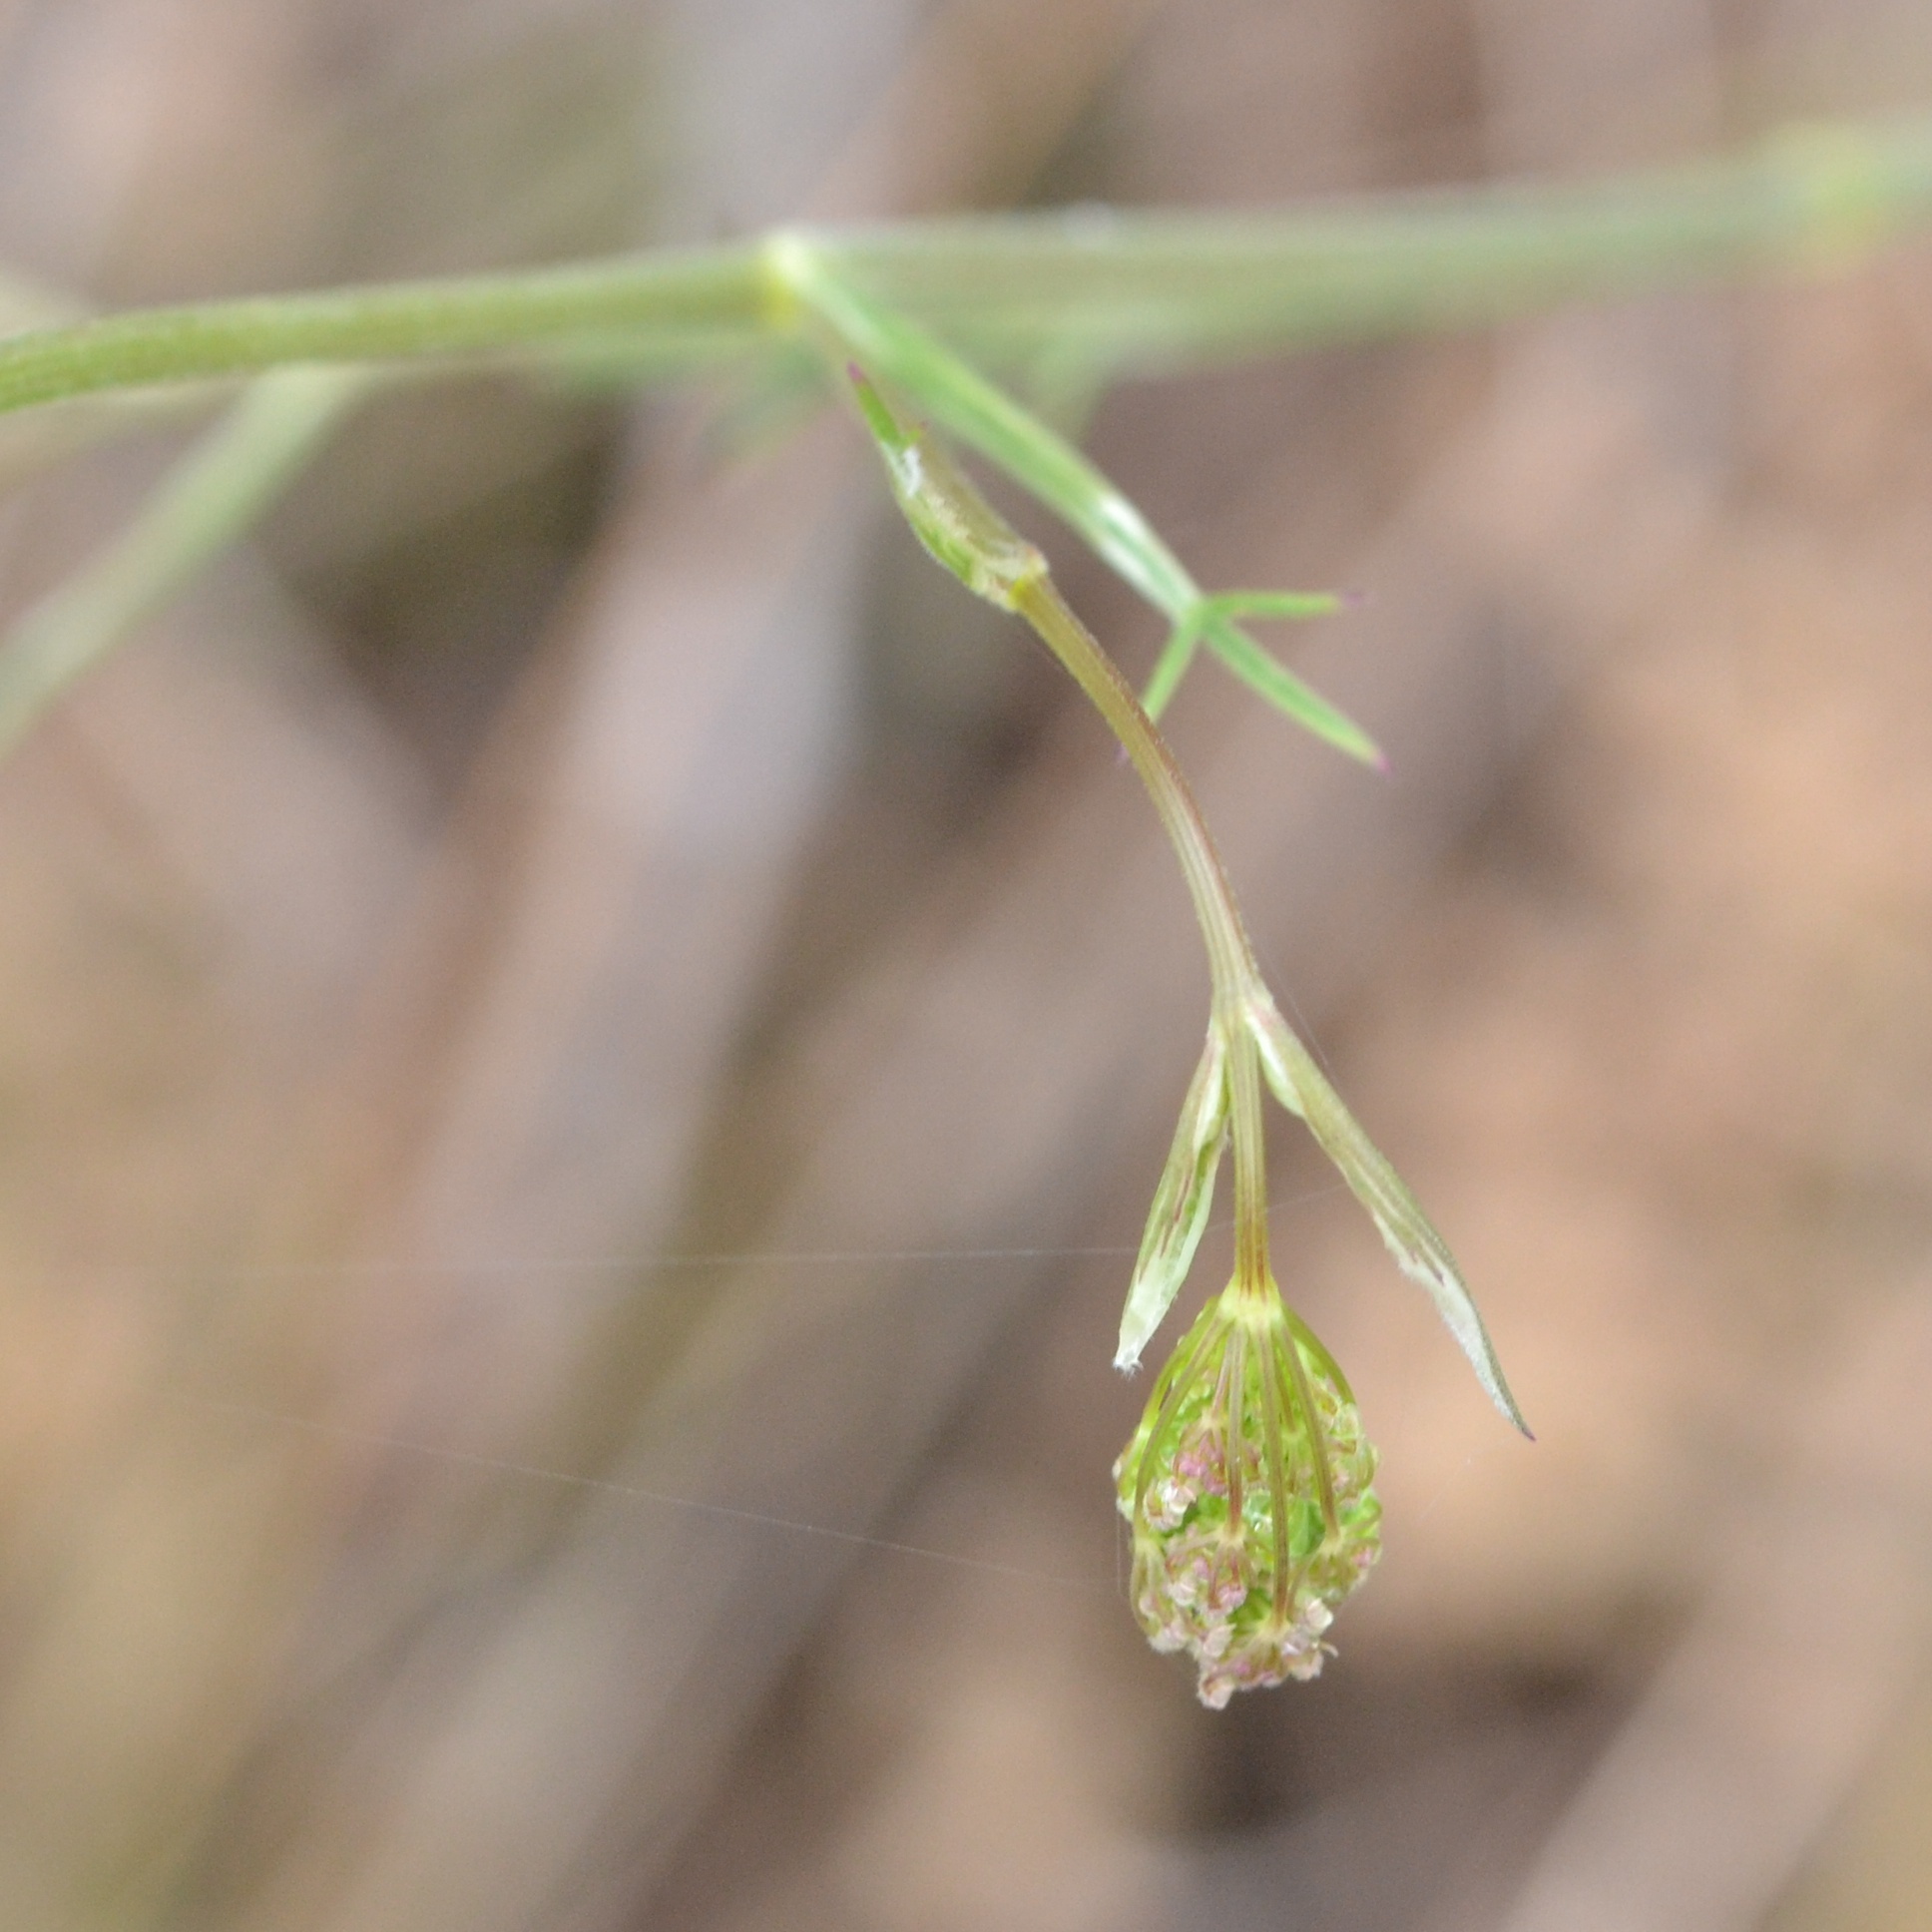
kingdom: Plantae
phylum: Tracheophyta
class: Magnoliopsida
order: Apiales
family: Apiaceae
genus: Pimpinella
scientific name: Pimpinella saxifraga
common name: Burnet-saxifrage
